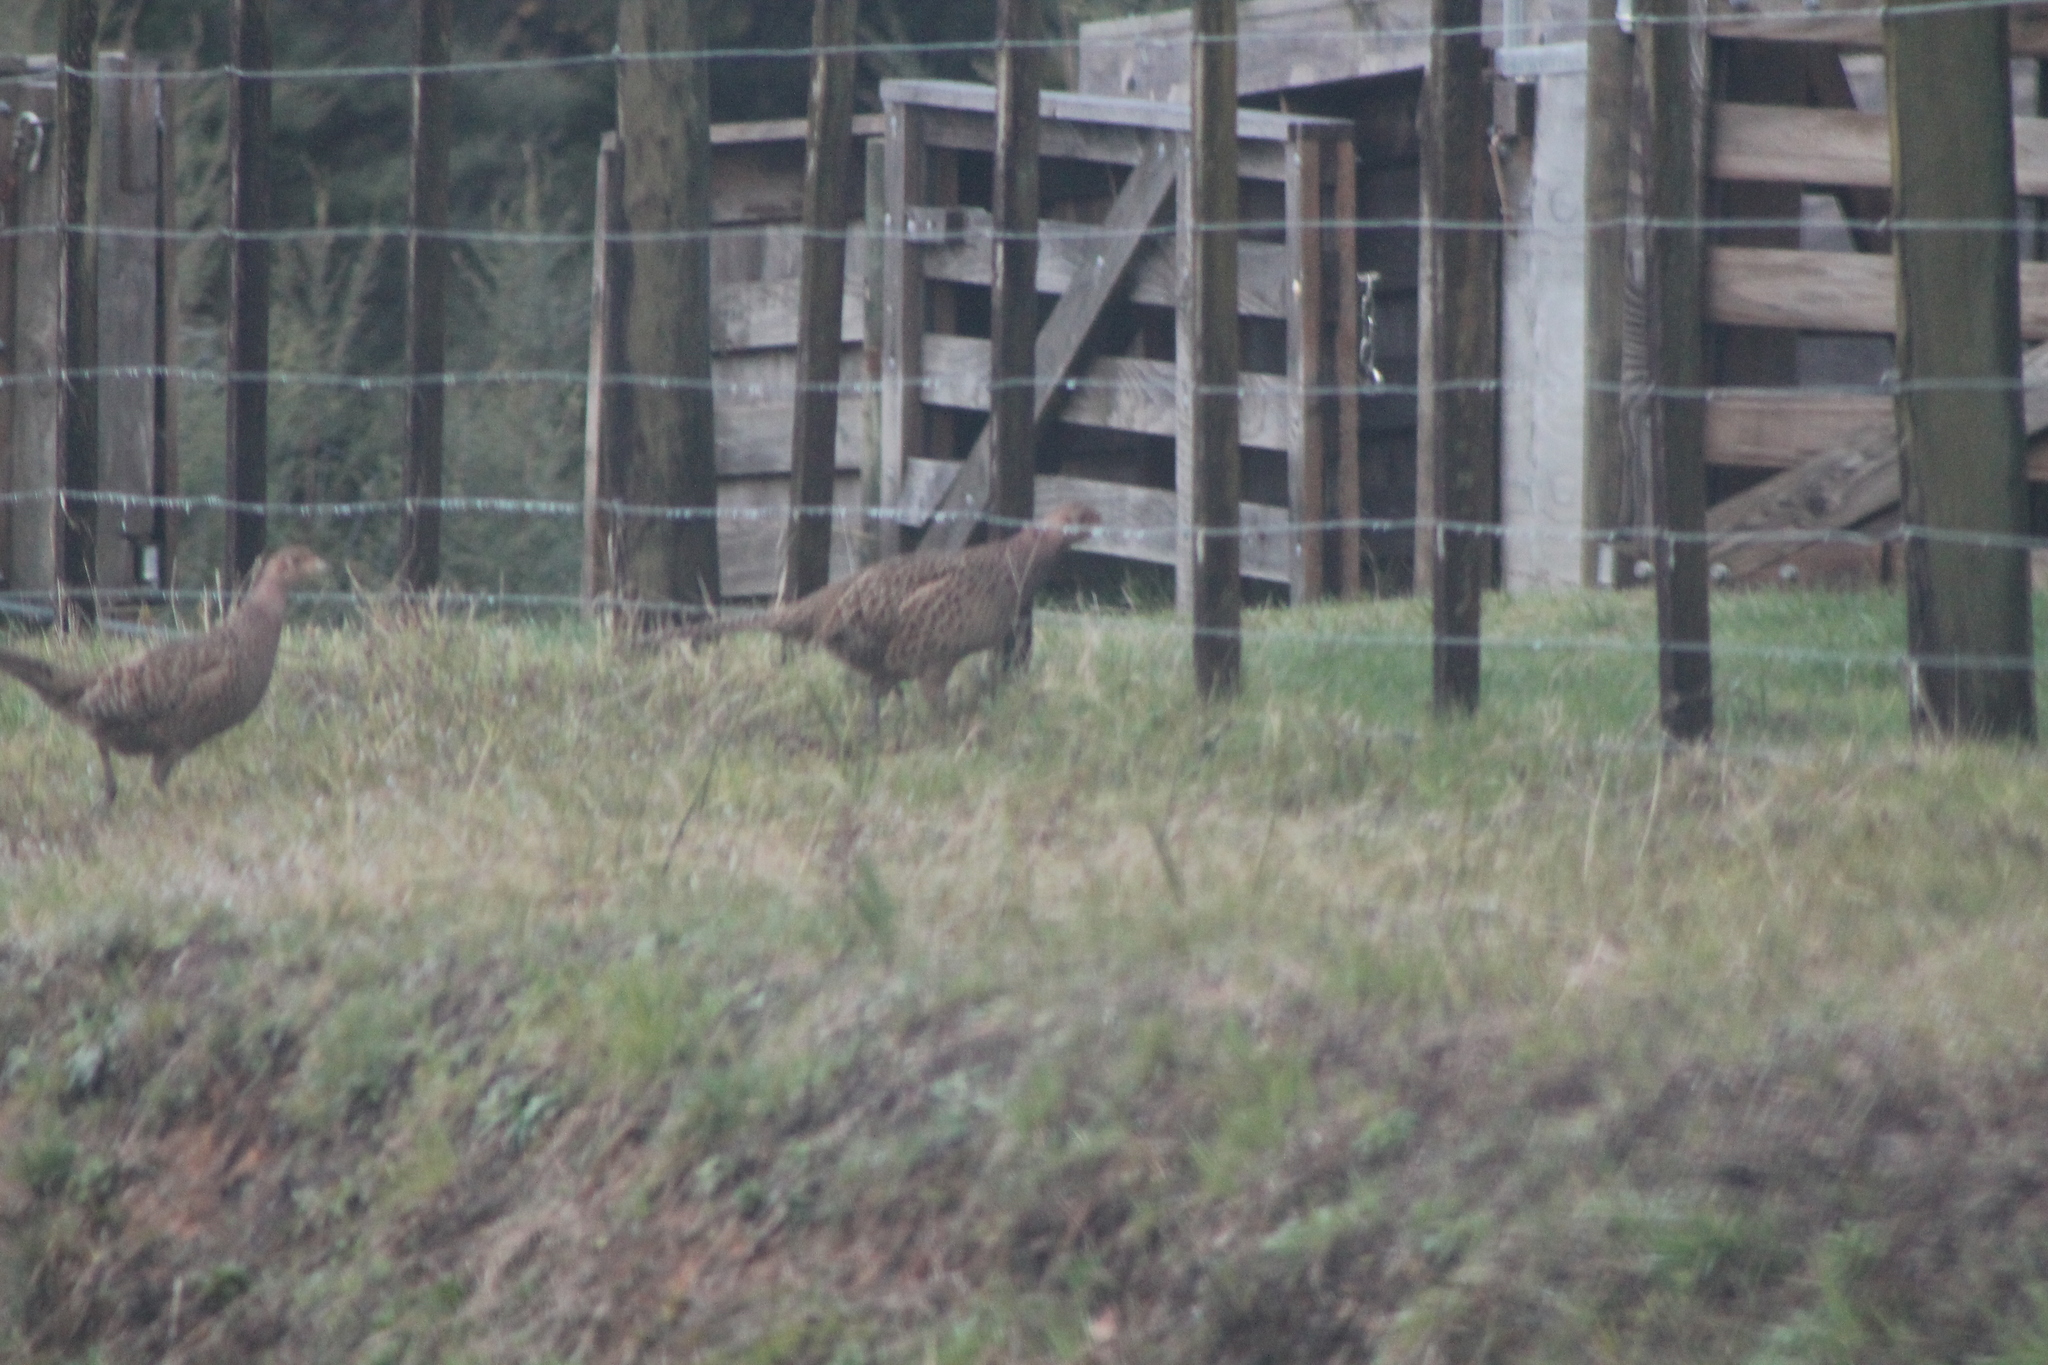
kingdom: Animalia
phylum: Chordata
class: Aves
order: Galliformes
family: Phasianidae
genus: Phasianus
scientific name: Phasianus colchicus
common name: Common pheasant
